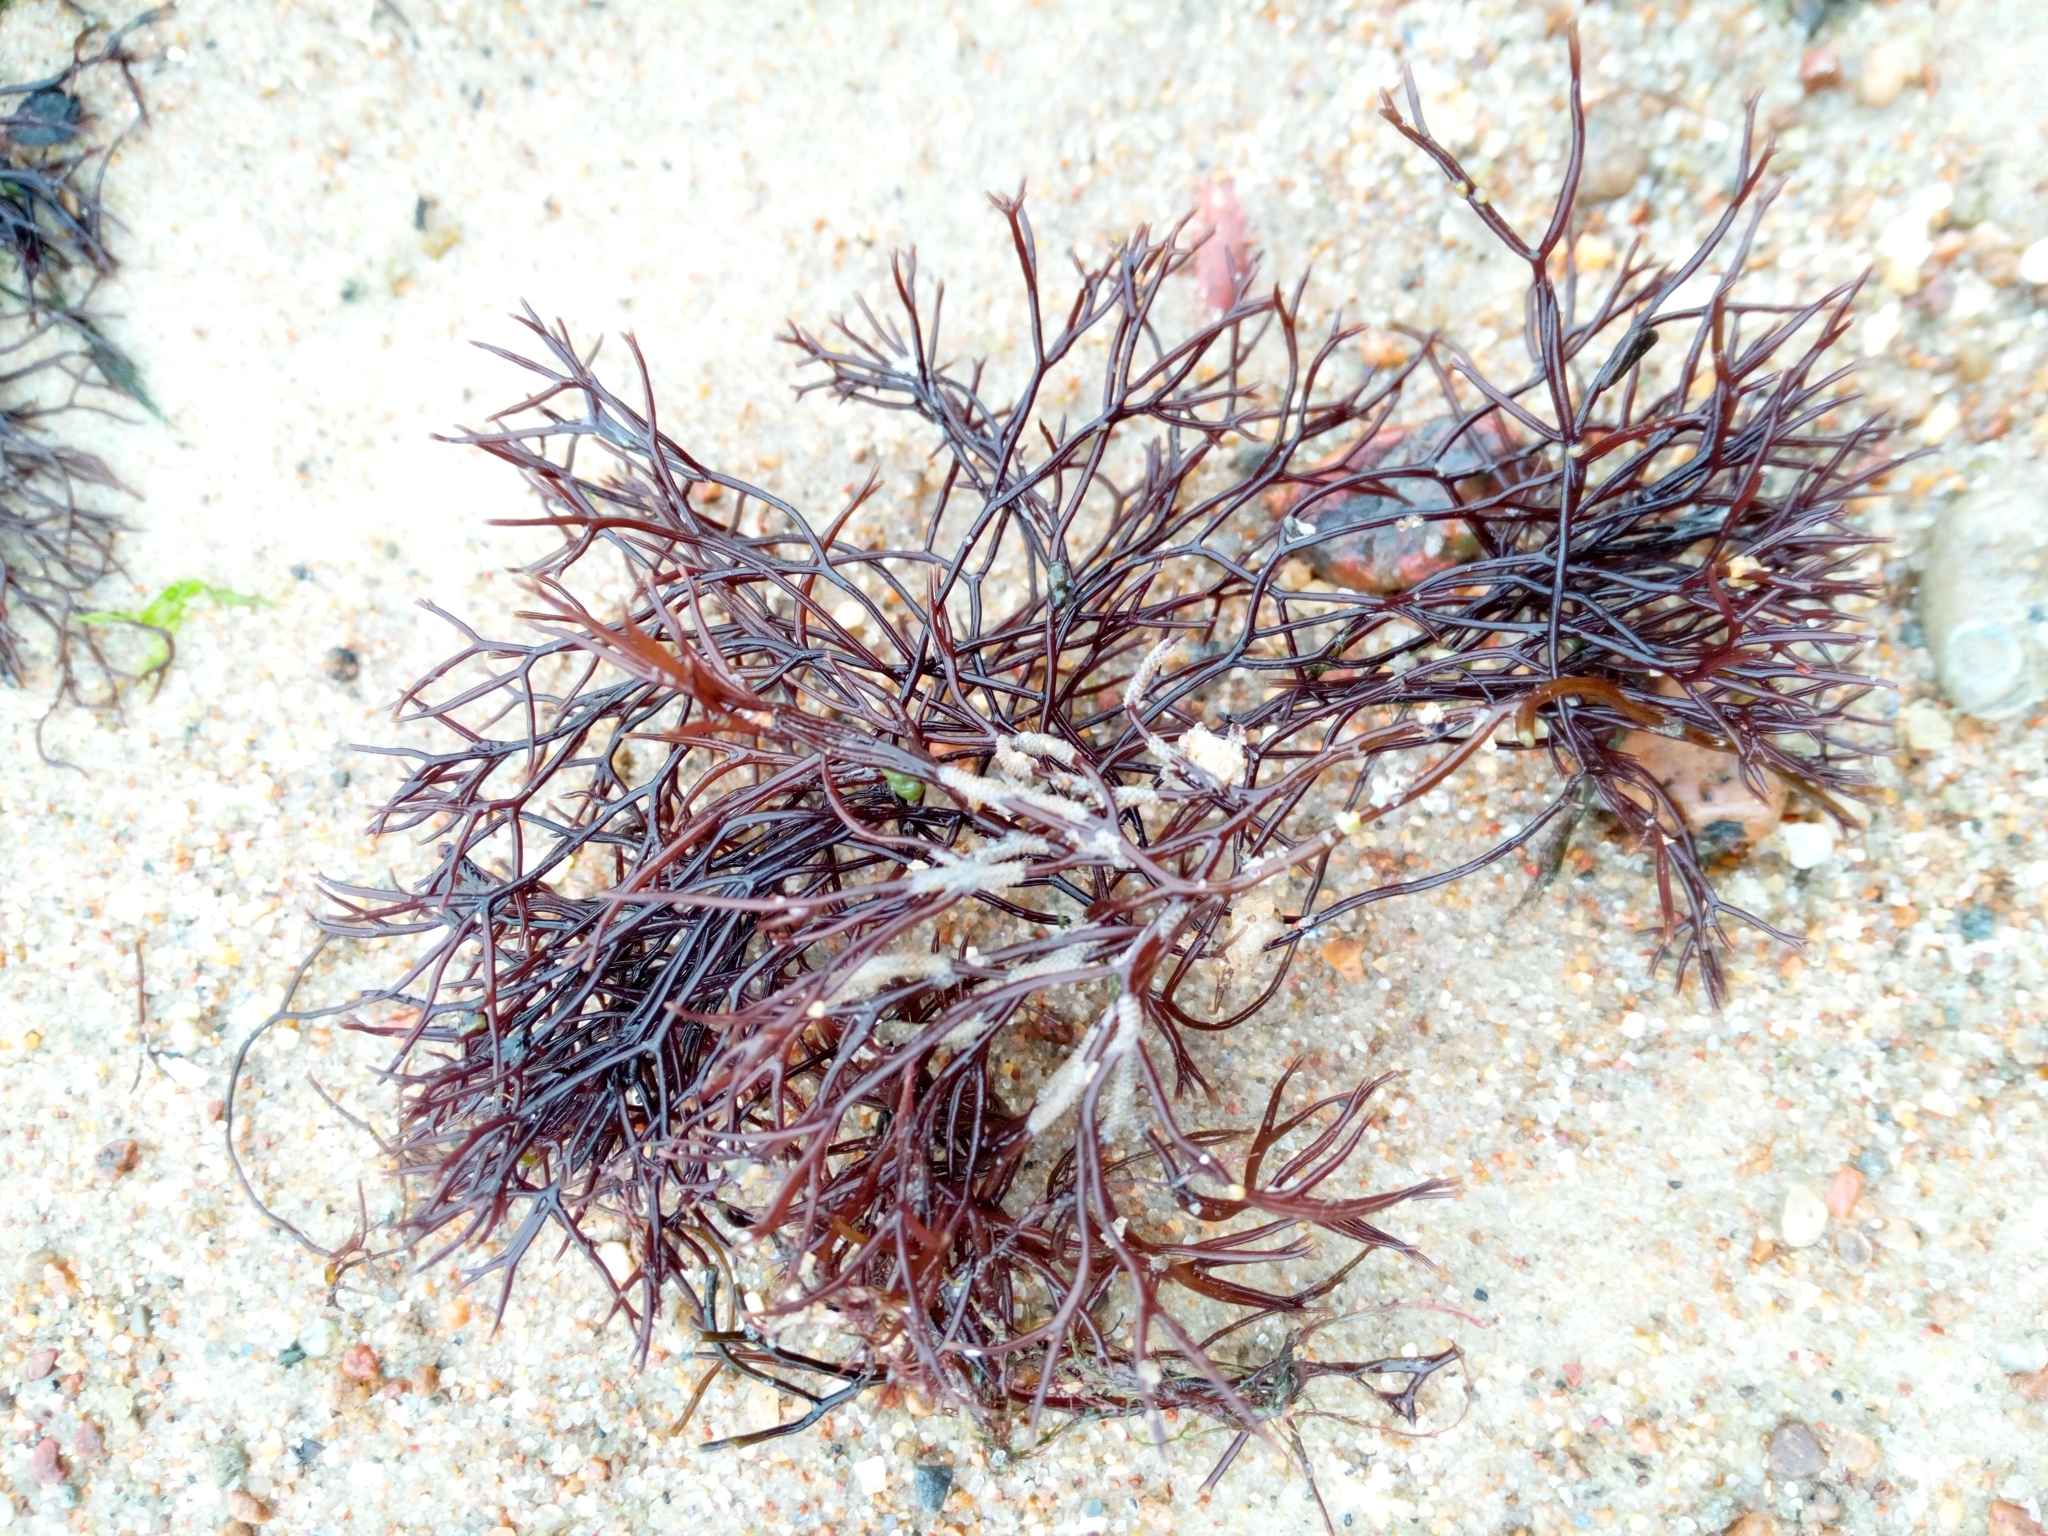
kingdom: Plantae
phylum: Rhodophyta
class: Florideophyceae
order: Gigartinales
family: Furcellariaceae
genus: Furcellaria
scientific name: Furcellaria lumbricalis
